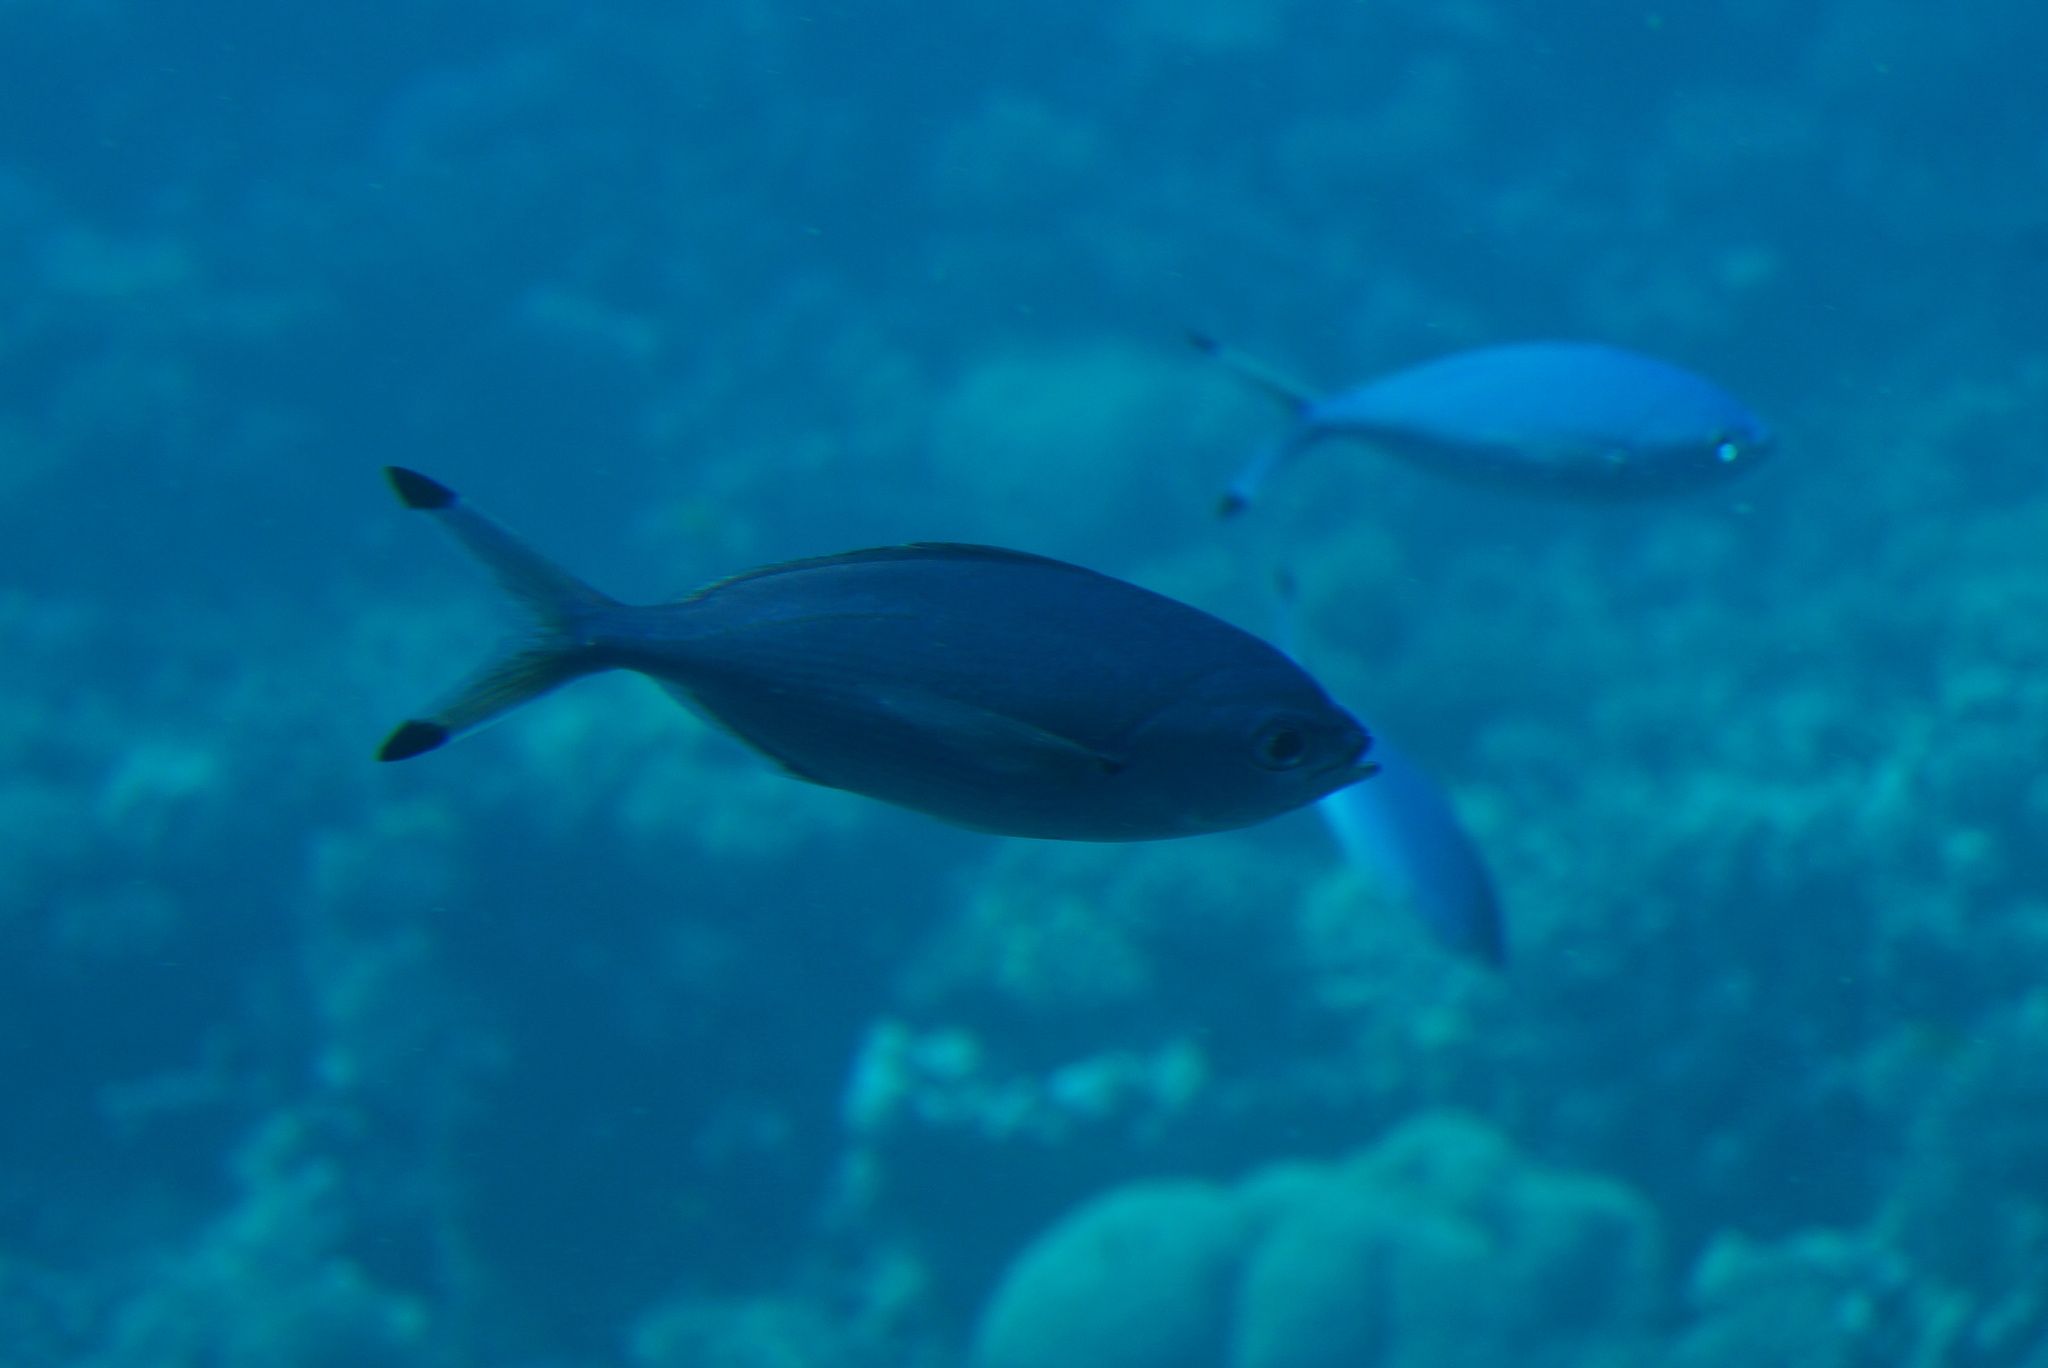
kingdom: Animalia
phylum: Chordata
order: Perciformes
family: Caesionidae
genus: Caesio
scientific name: Caesio lunaris
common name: Blue fusilier
